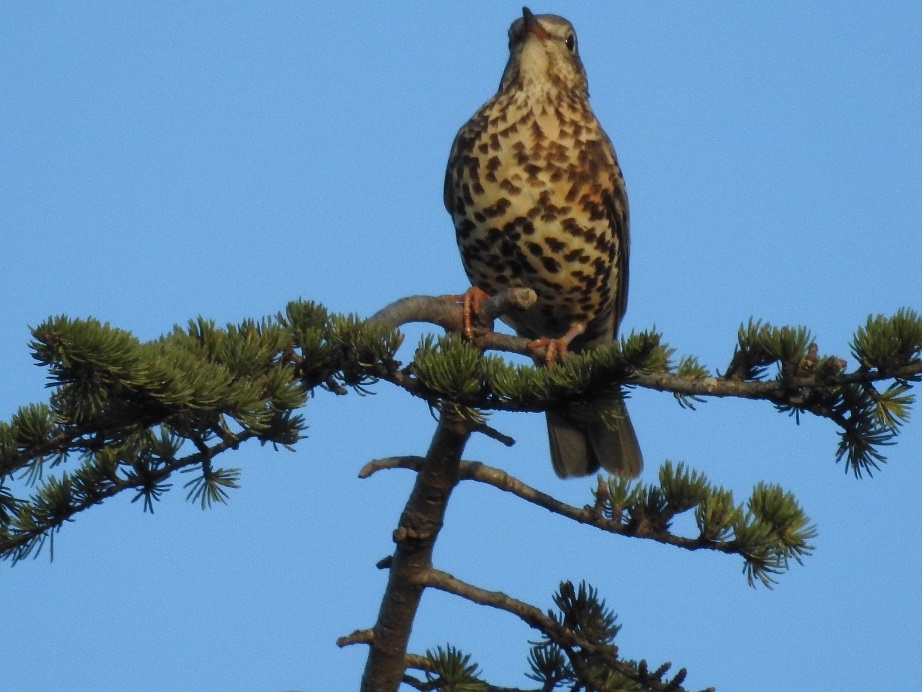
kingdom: Animalia
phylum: Chordata
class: Aves
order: Passeriformes
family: Turdidae
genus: Turdus
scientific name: Turdus viscivorus
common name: Mistle thrush
